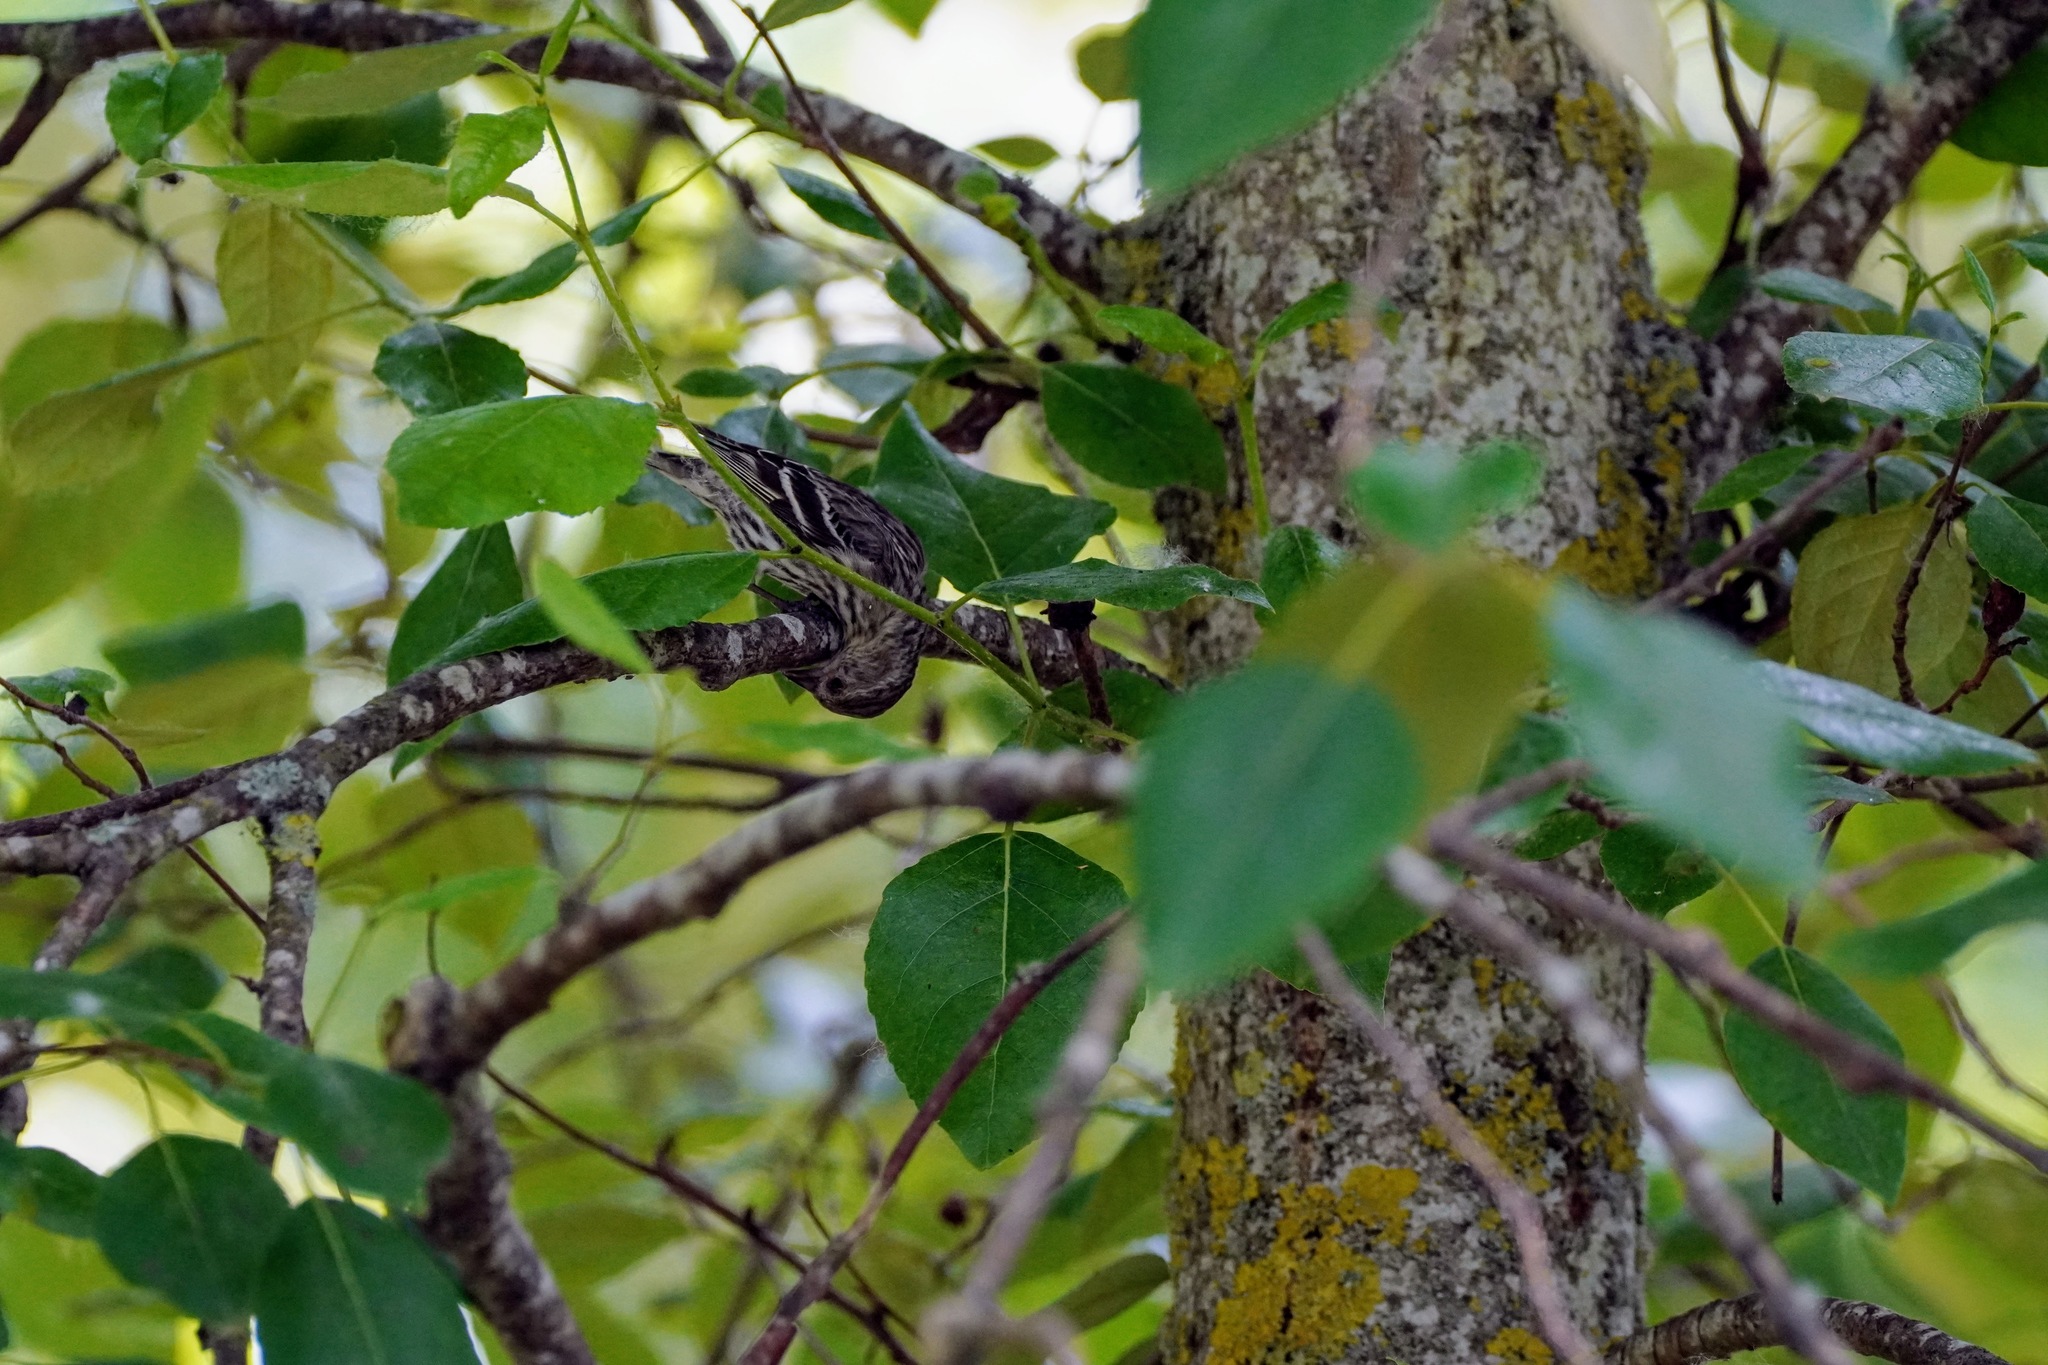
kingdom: Animalia
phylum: Chordata
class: Aves
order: Passeriformes
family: Fringillidae
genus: Spinus
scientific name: Spinus pinus
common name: Pine siskin
